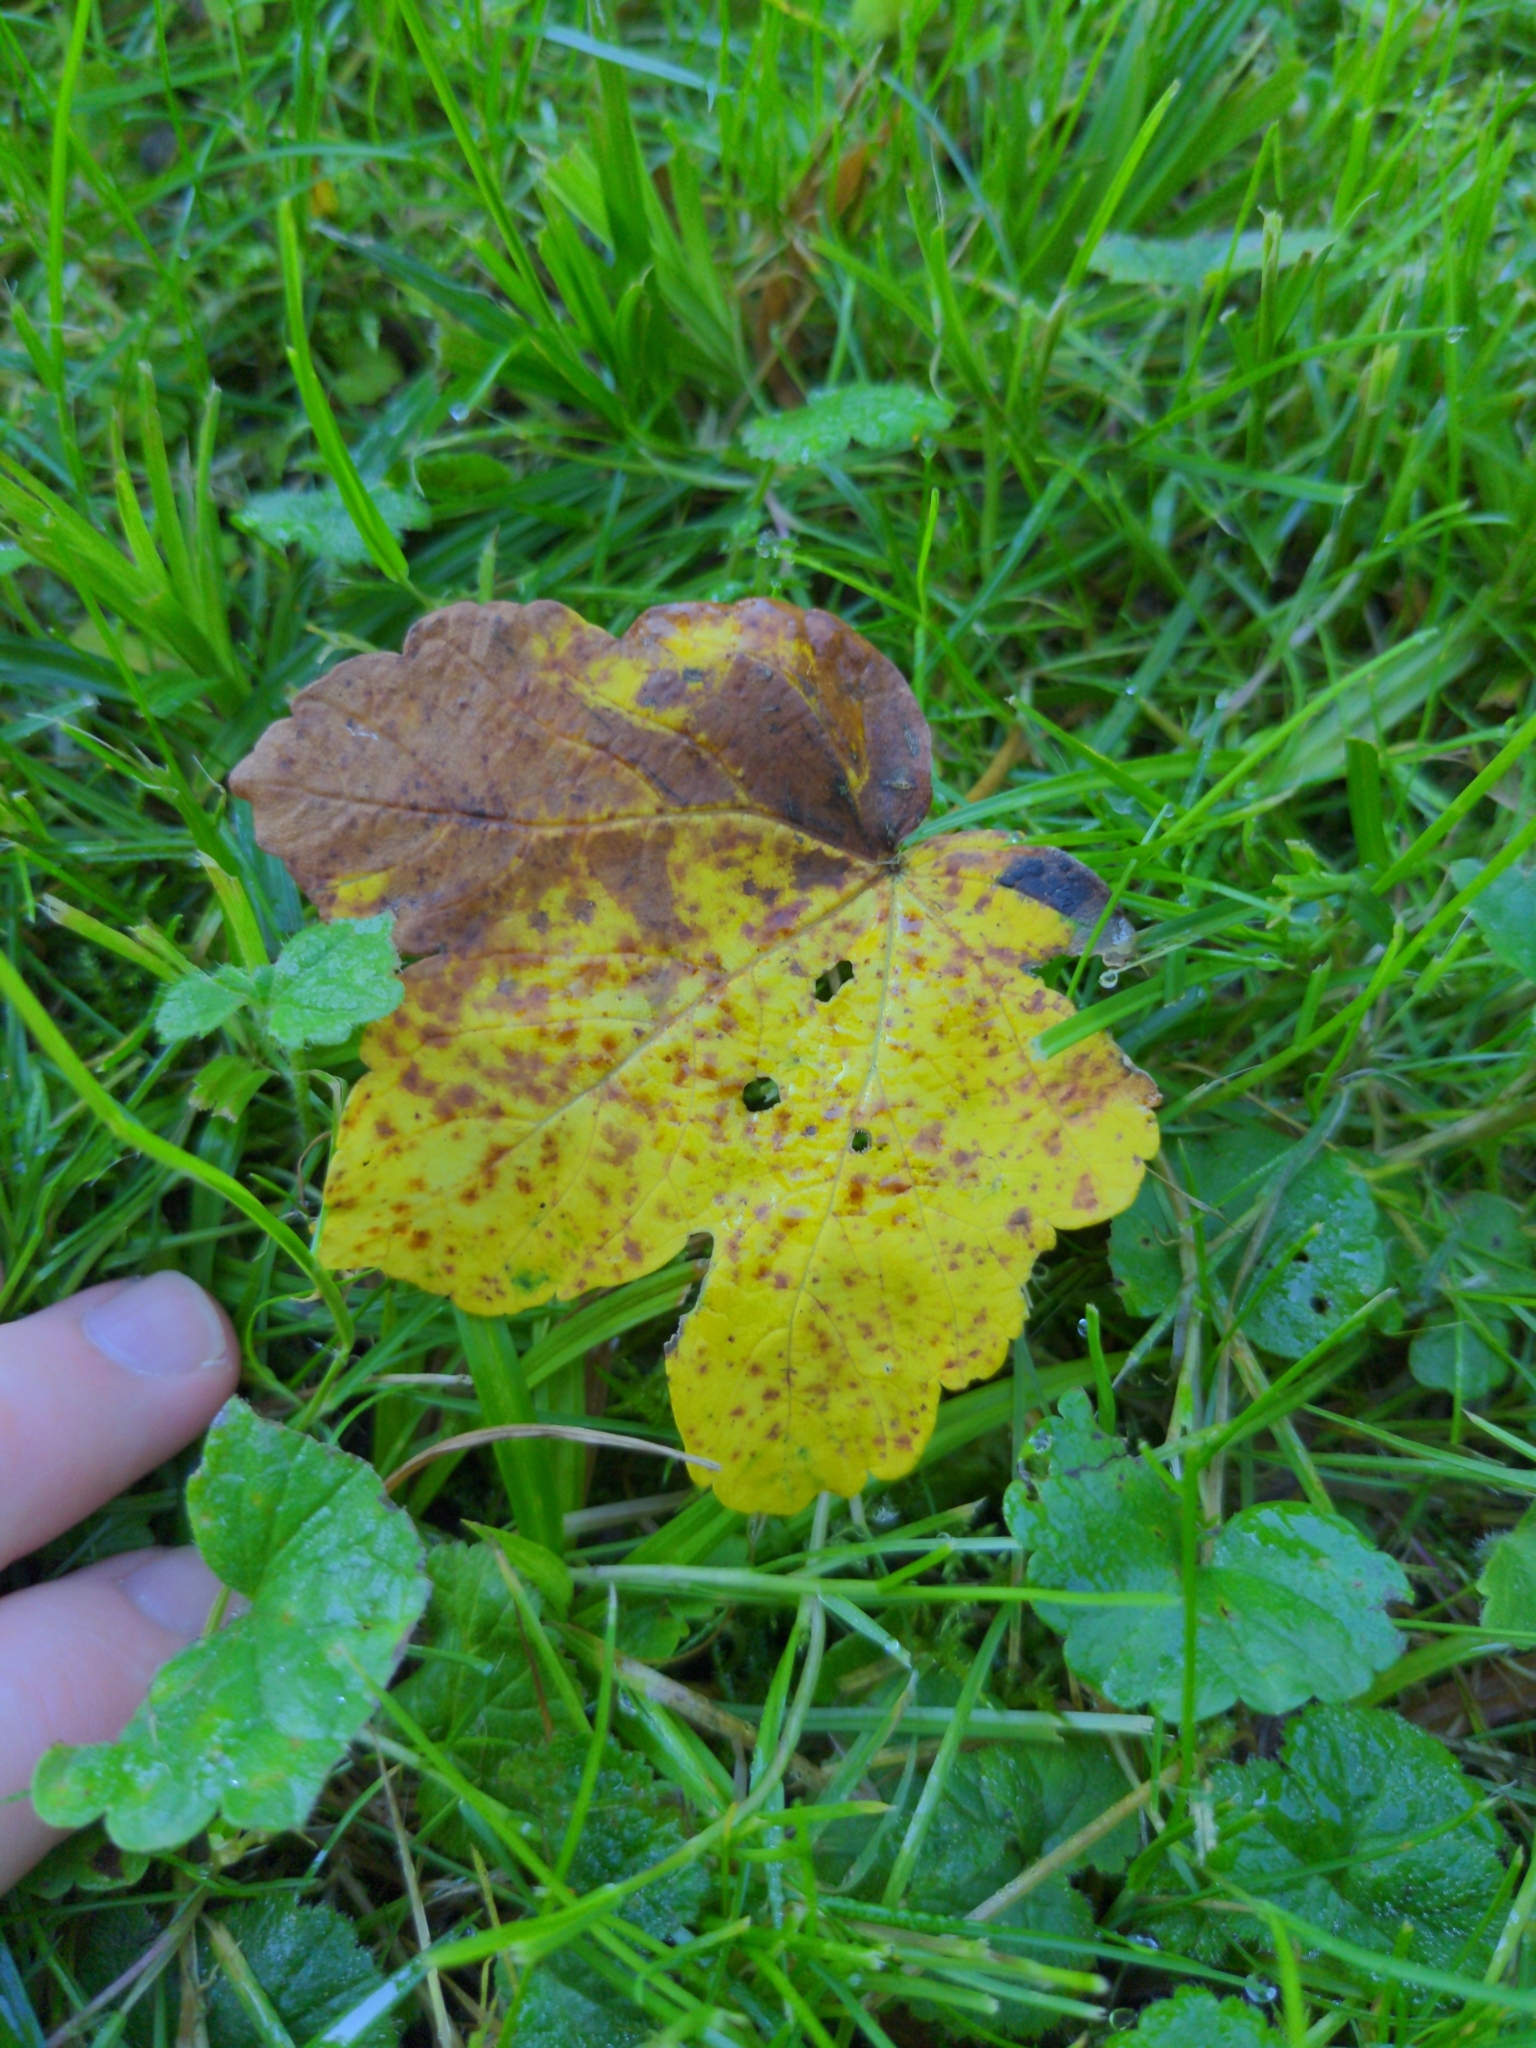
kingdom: Plantae
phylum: Tracheophyta
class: Magnoliopsida
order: Sapindales
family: Sapindaceae
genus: Acer
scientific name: Acer pseudoplatanus
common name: Sycamore
